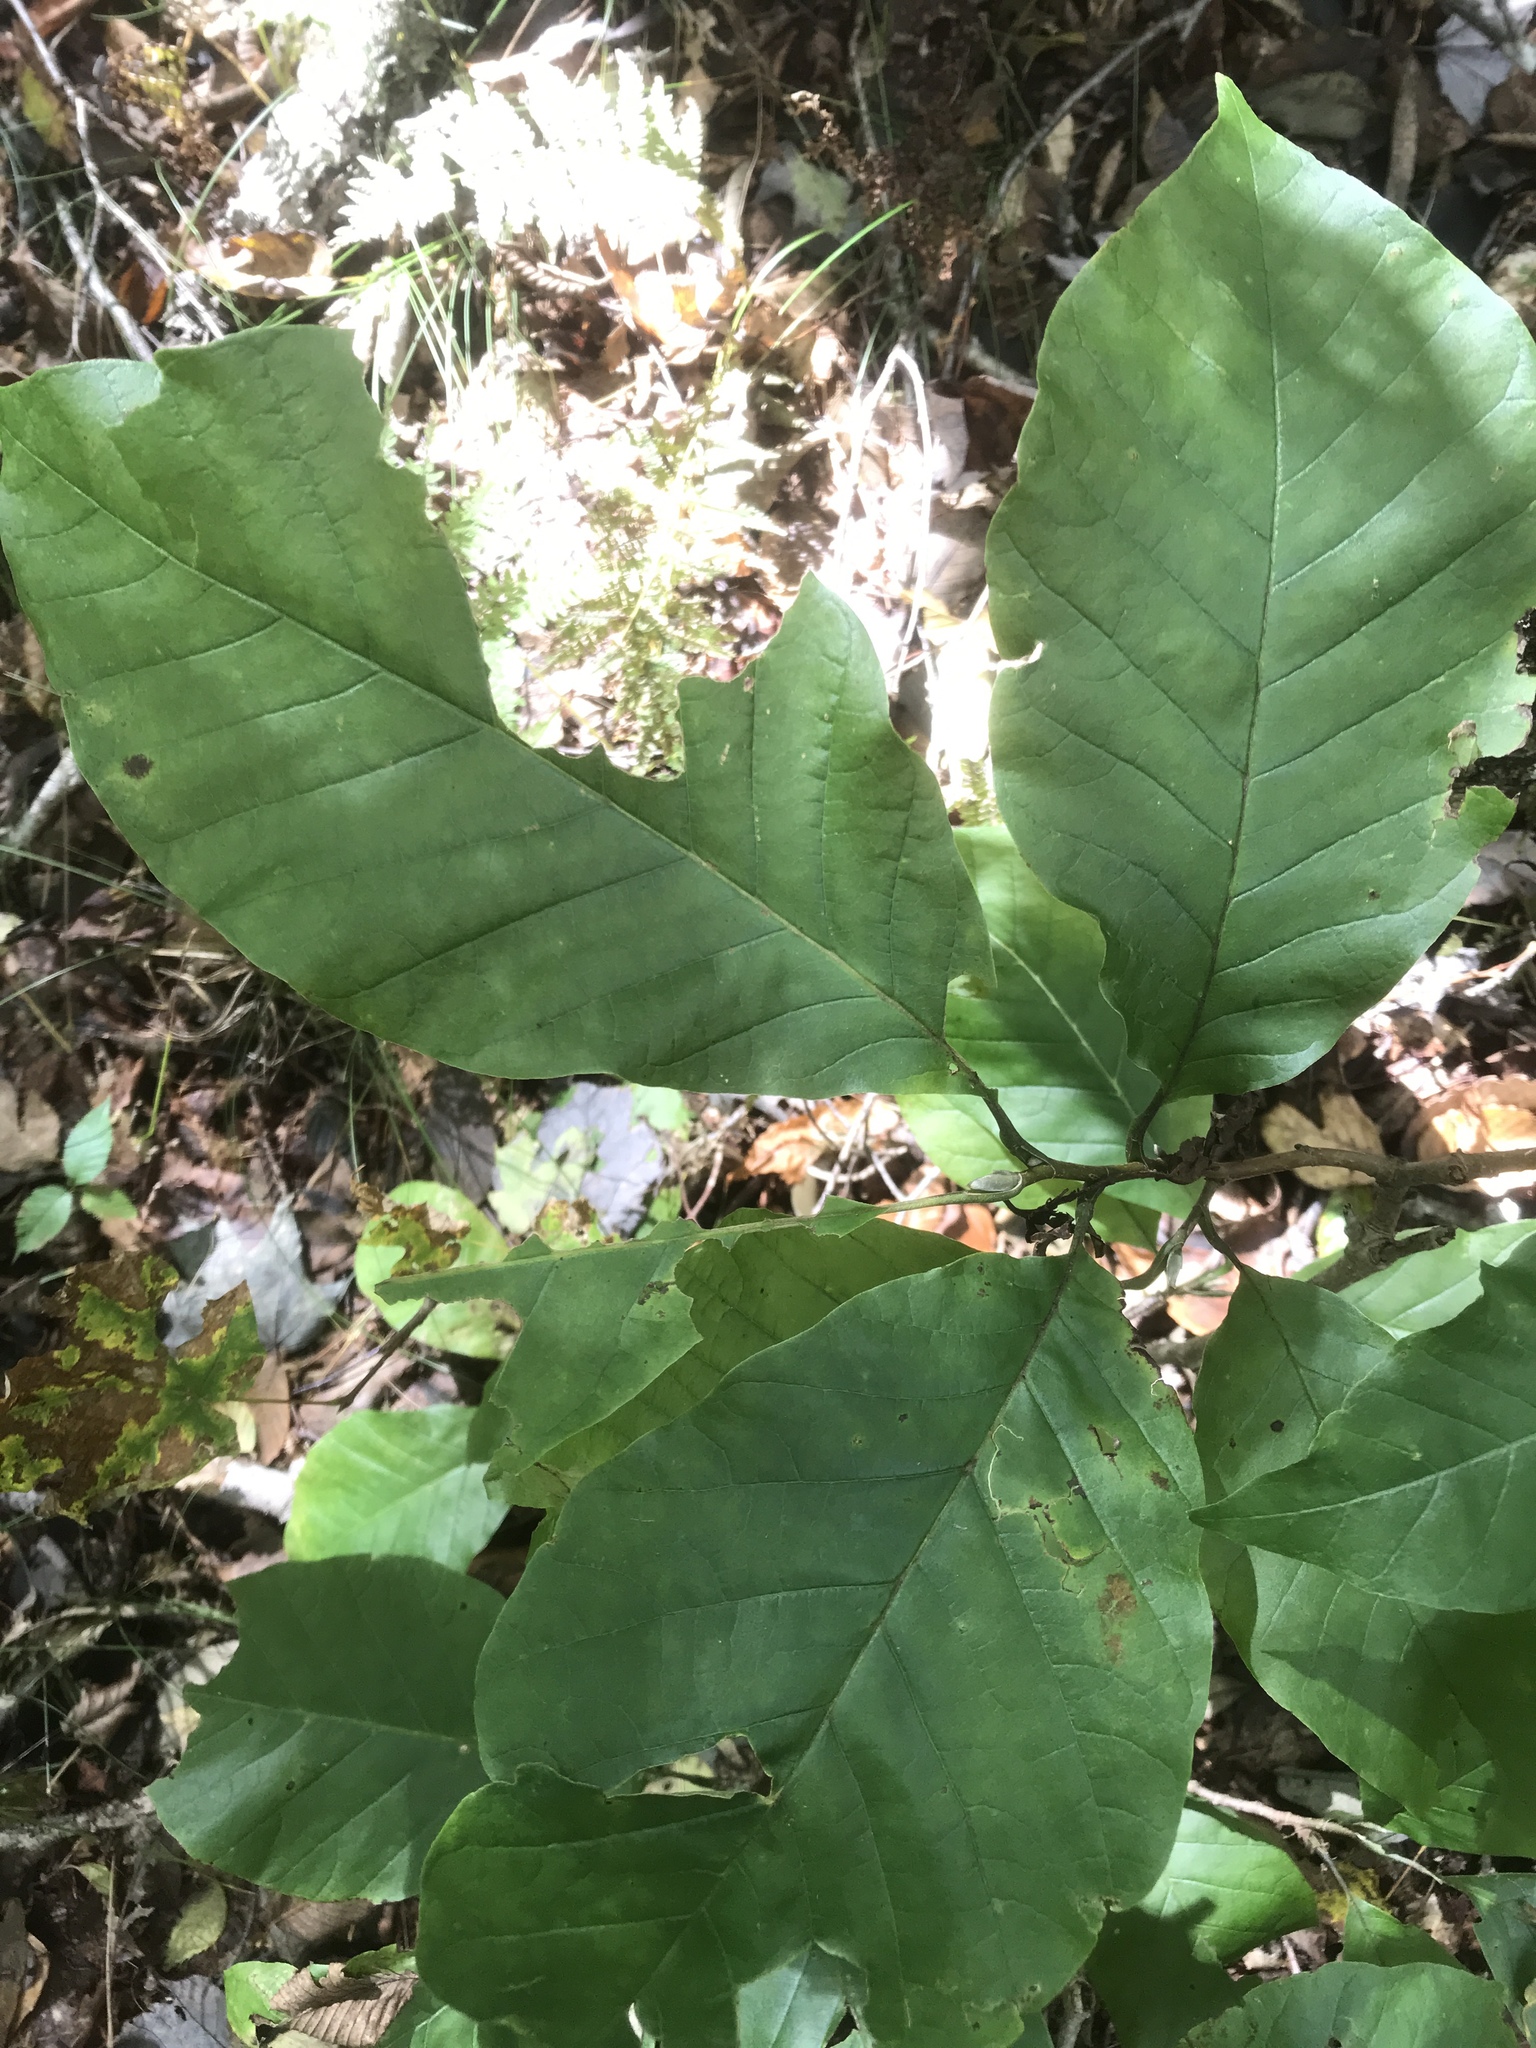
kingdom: Plantae
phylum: Tracheophyta
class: Magnoliopsida
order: Magnoliales
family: Magnoliaceae
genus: Magnolia
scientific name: Magnolia acuminata
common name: Cucumber magnolia
